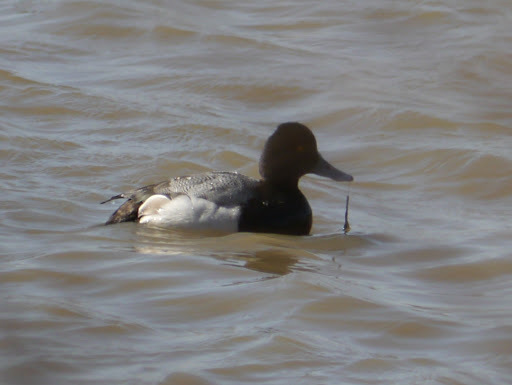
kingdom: Animalia
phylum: Chordata
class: Aves
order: Anseriformes
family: Anatidae
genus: Aythya
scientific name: Aythya affinis
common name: Lesser scaup
